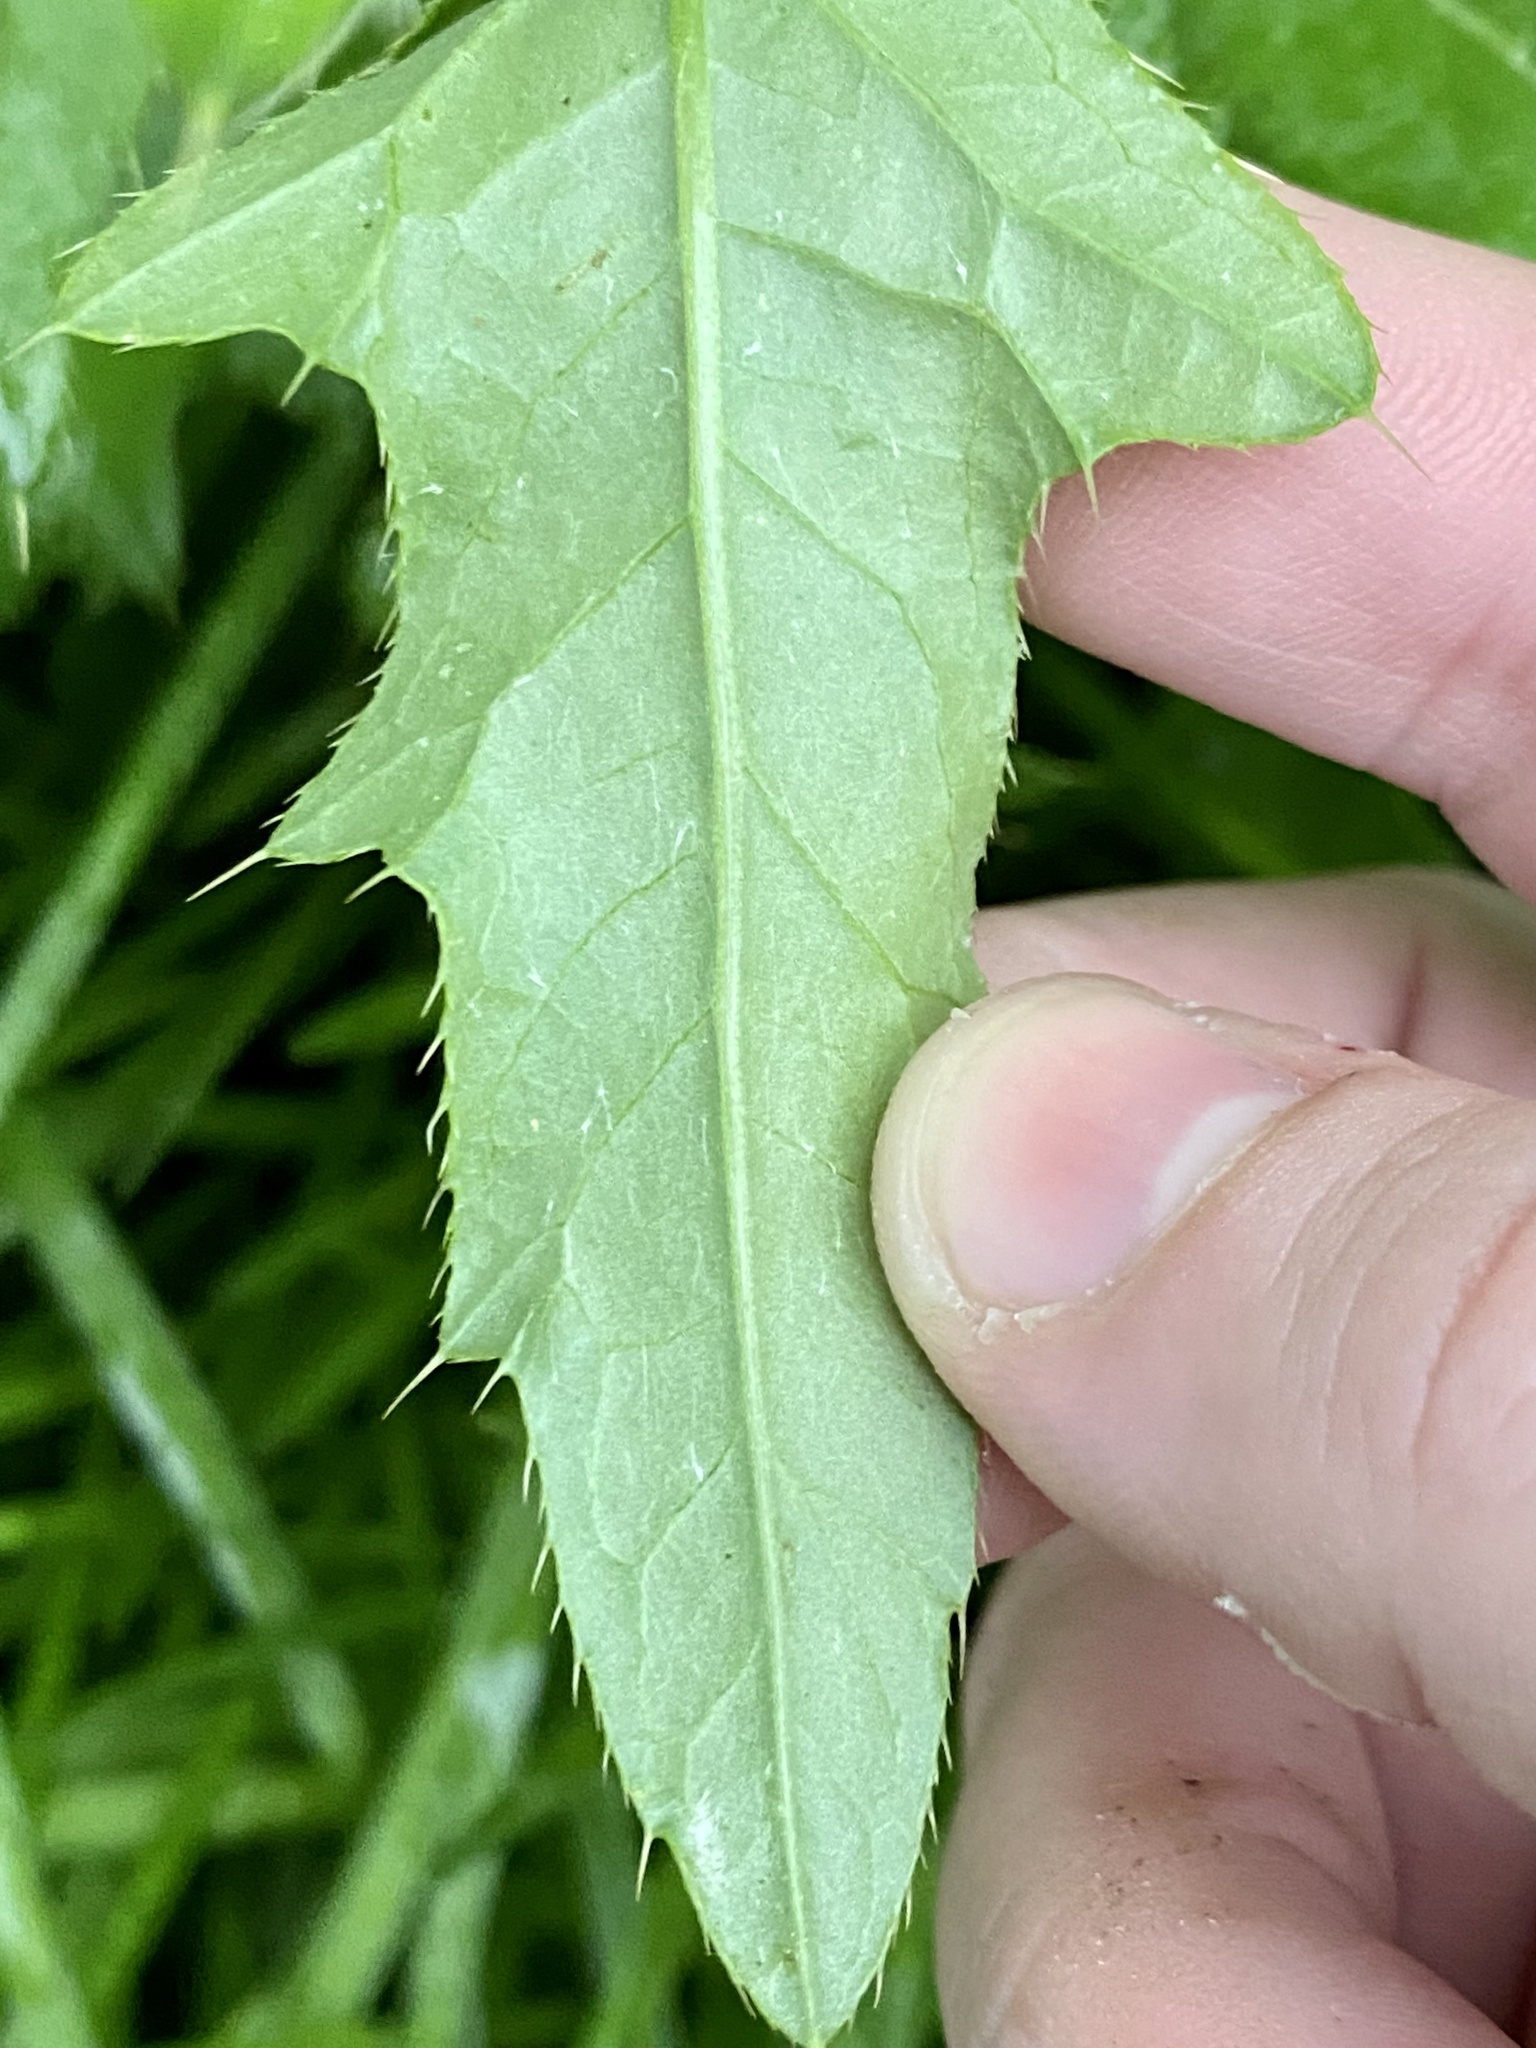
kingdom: Plantae
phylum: Tracheophyta
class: Magnoliopsida
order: Asterales
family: Asteraceae
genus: Cirsium
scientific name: Cirsium arvense
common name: Creeping thistle
